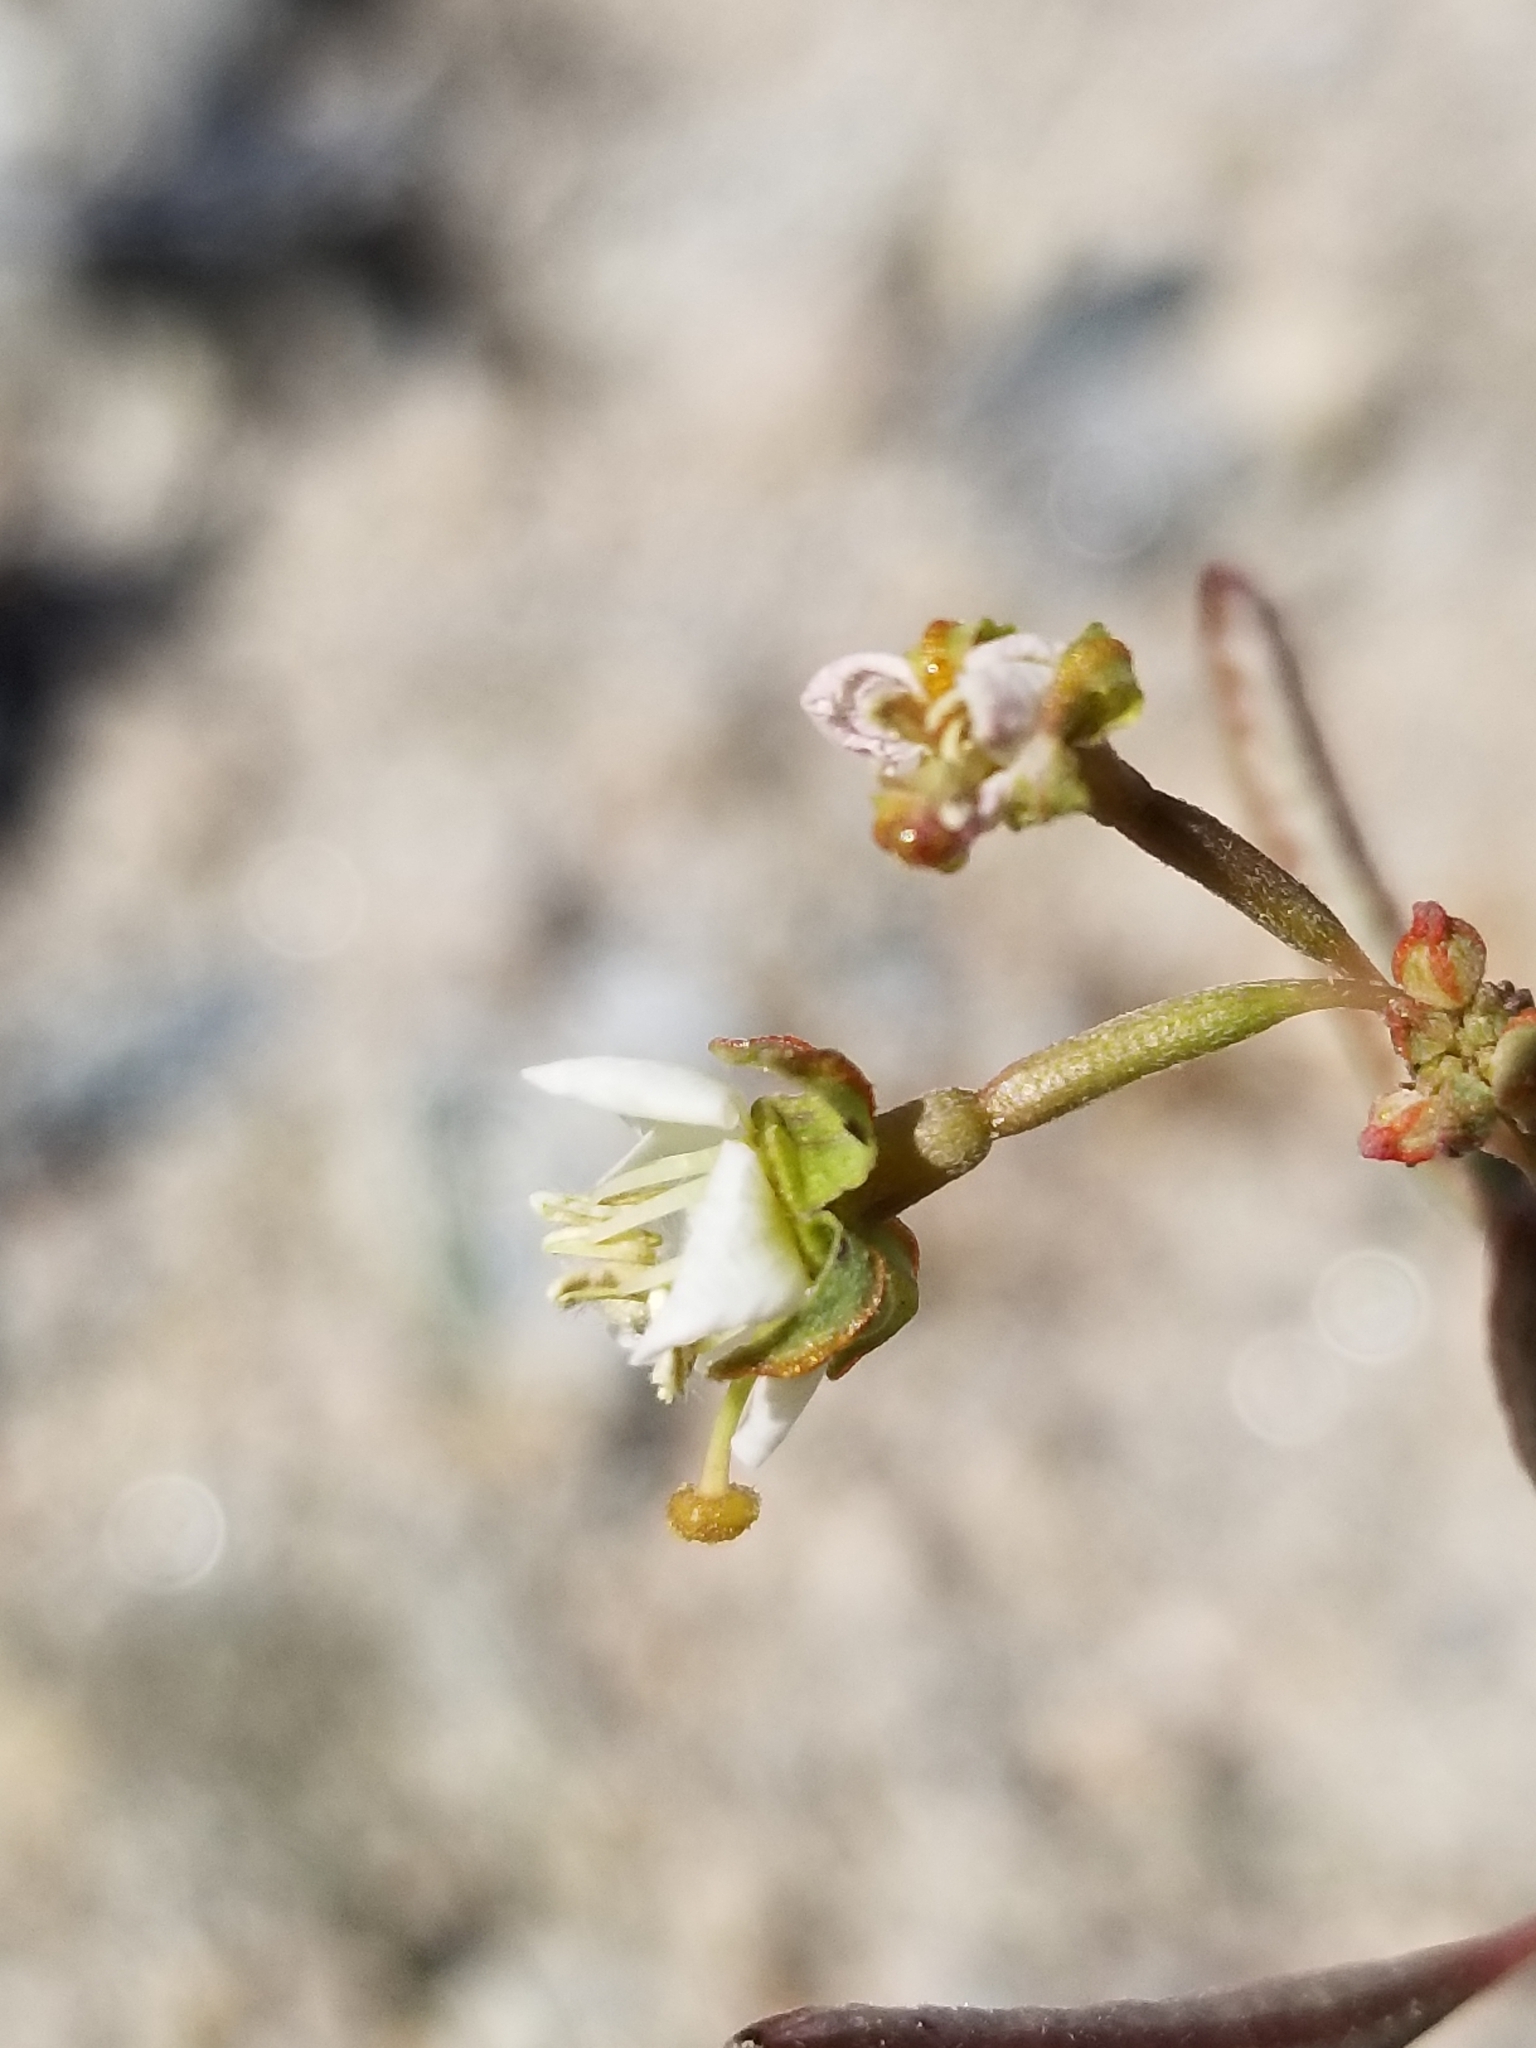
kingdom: Plantae
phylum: Tracheophyta
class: Magnoliopsida
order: Myrtales
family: Onagraceae
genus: Chylismia
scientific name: Chylismia claviformis
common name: Browneyes
